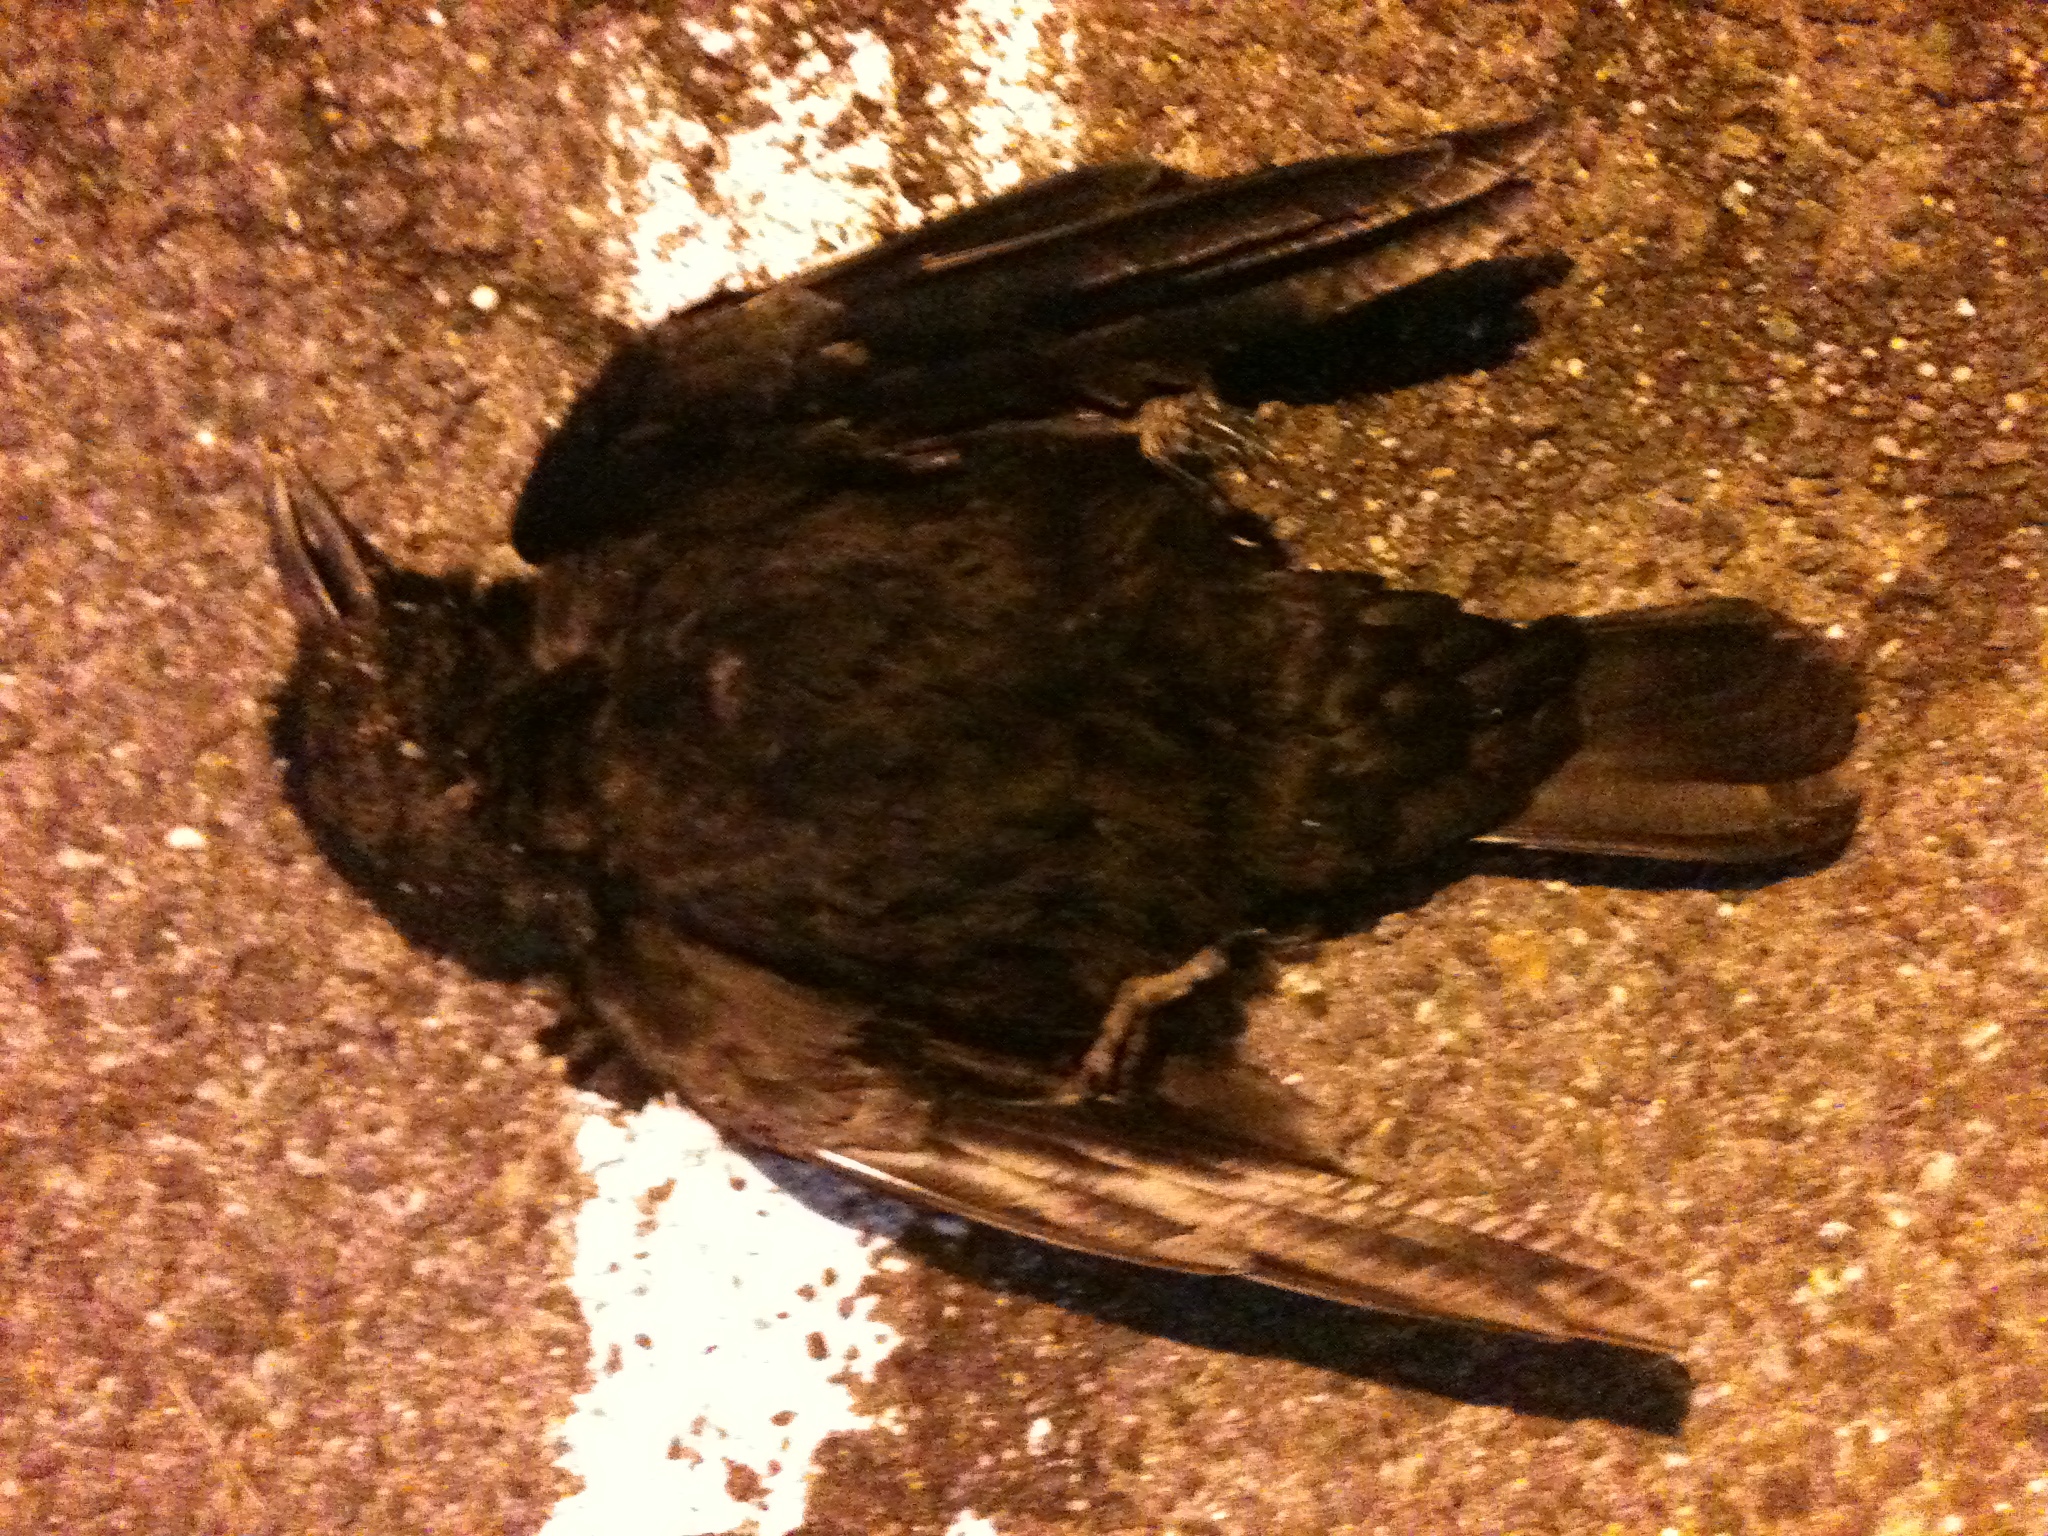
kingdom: Animalia
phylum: Chordata
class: Aves
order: Passeriformes
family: Corvidae
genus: Corvus
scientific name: Corvus
